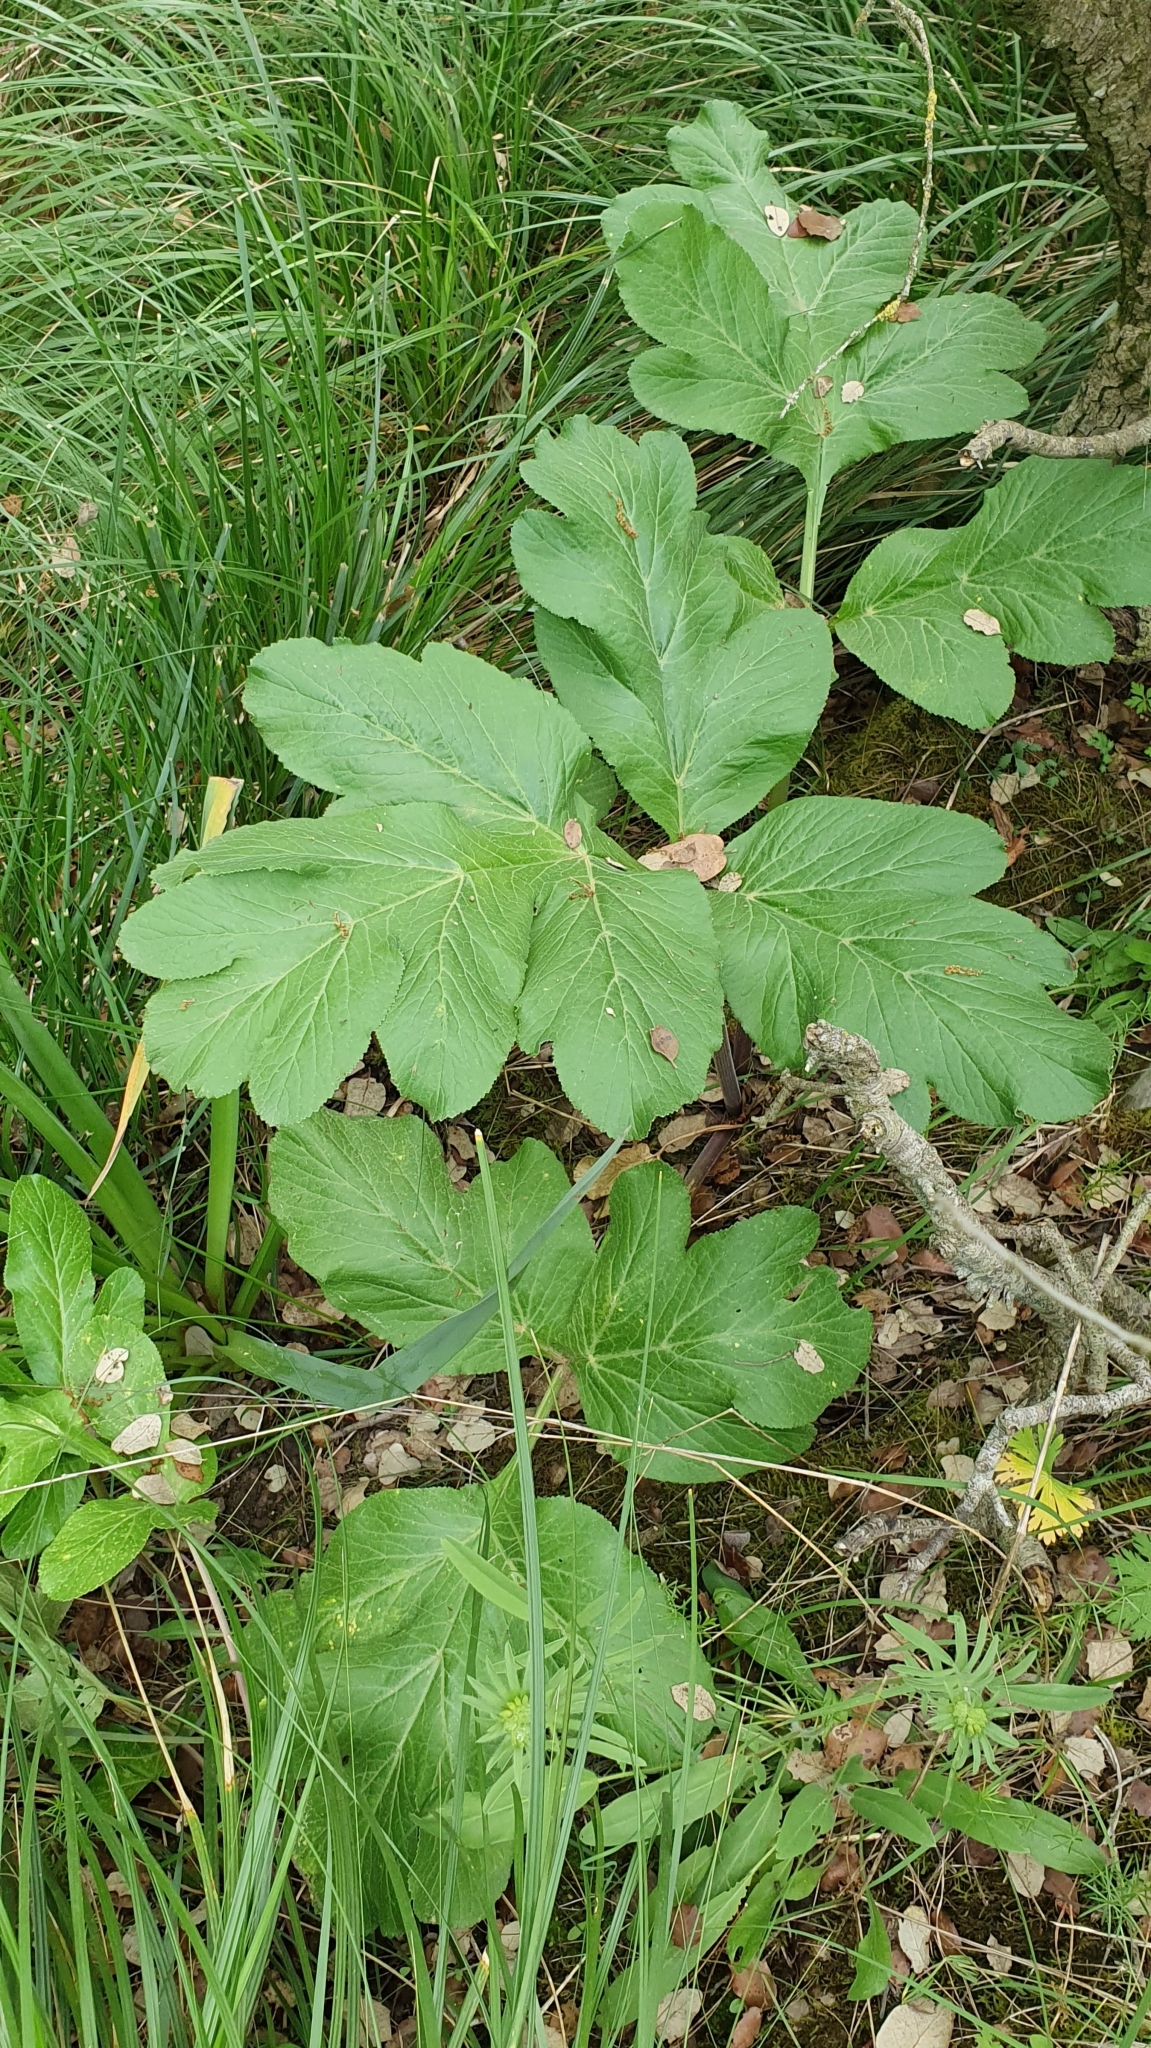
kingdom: Plantae
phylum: Tracheophyta
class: Magnoliopsida
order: Apiales
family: Apiaceae
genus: Magydaris
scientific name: Magydaris pastinacea
